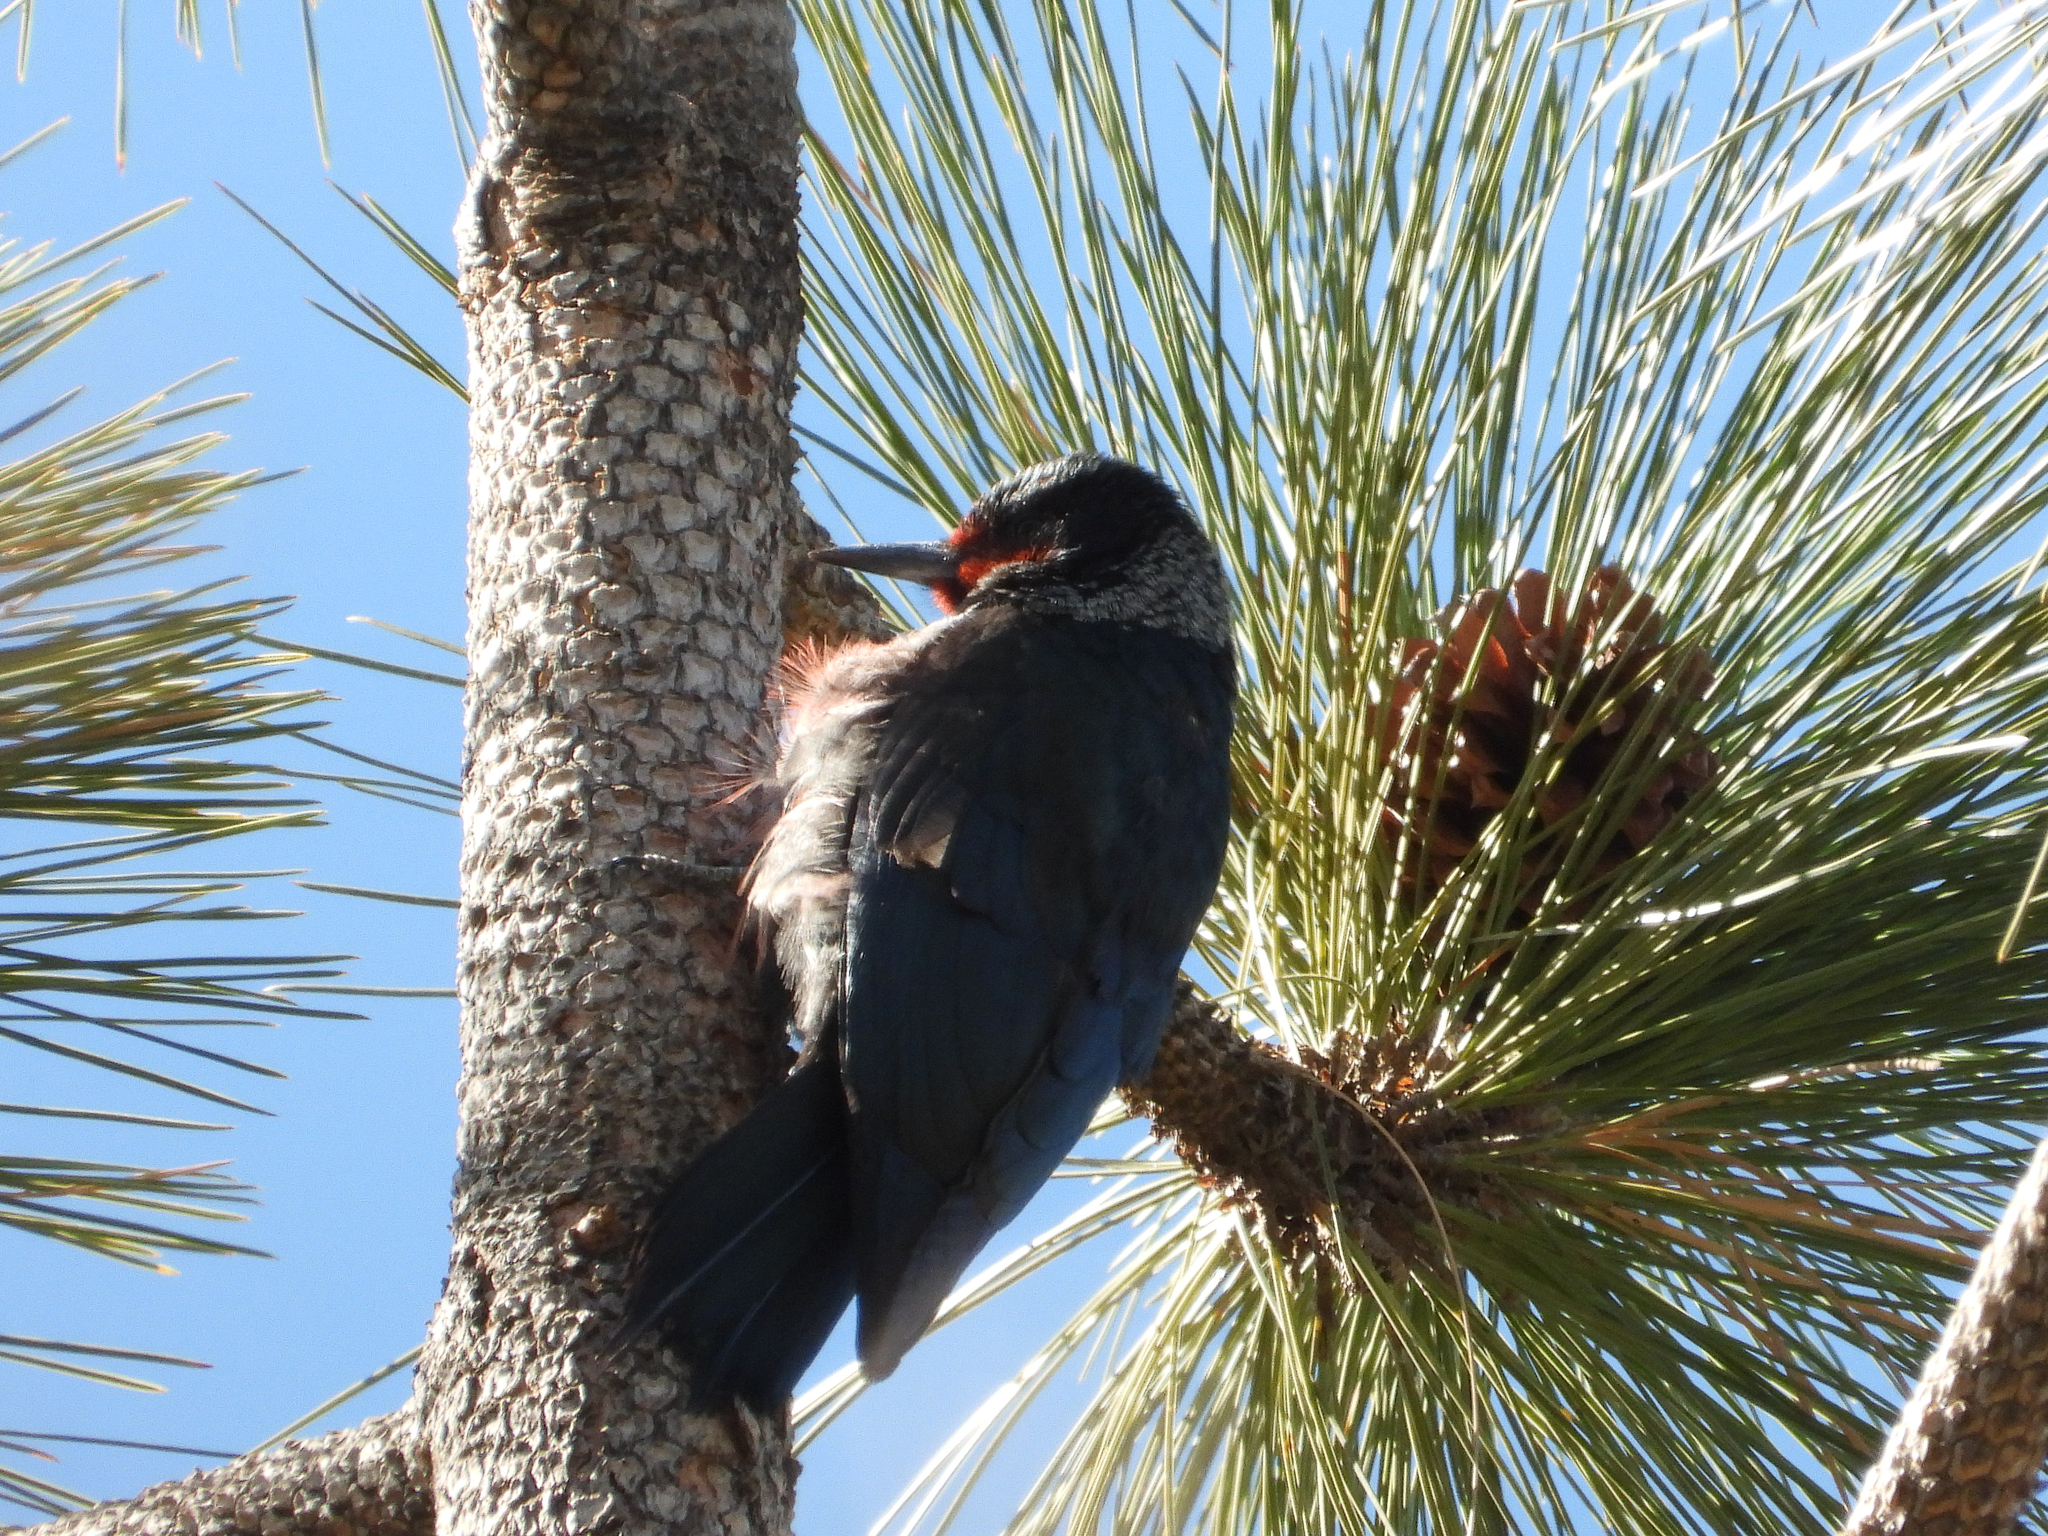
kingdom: Animalia
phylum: Chordata
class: Aves
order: Piciformes
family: Picidae
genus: Melanerpes
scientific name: Melanerpes lewis
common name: Lewis's woodpecker
